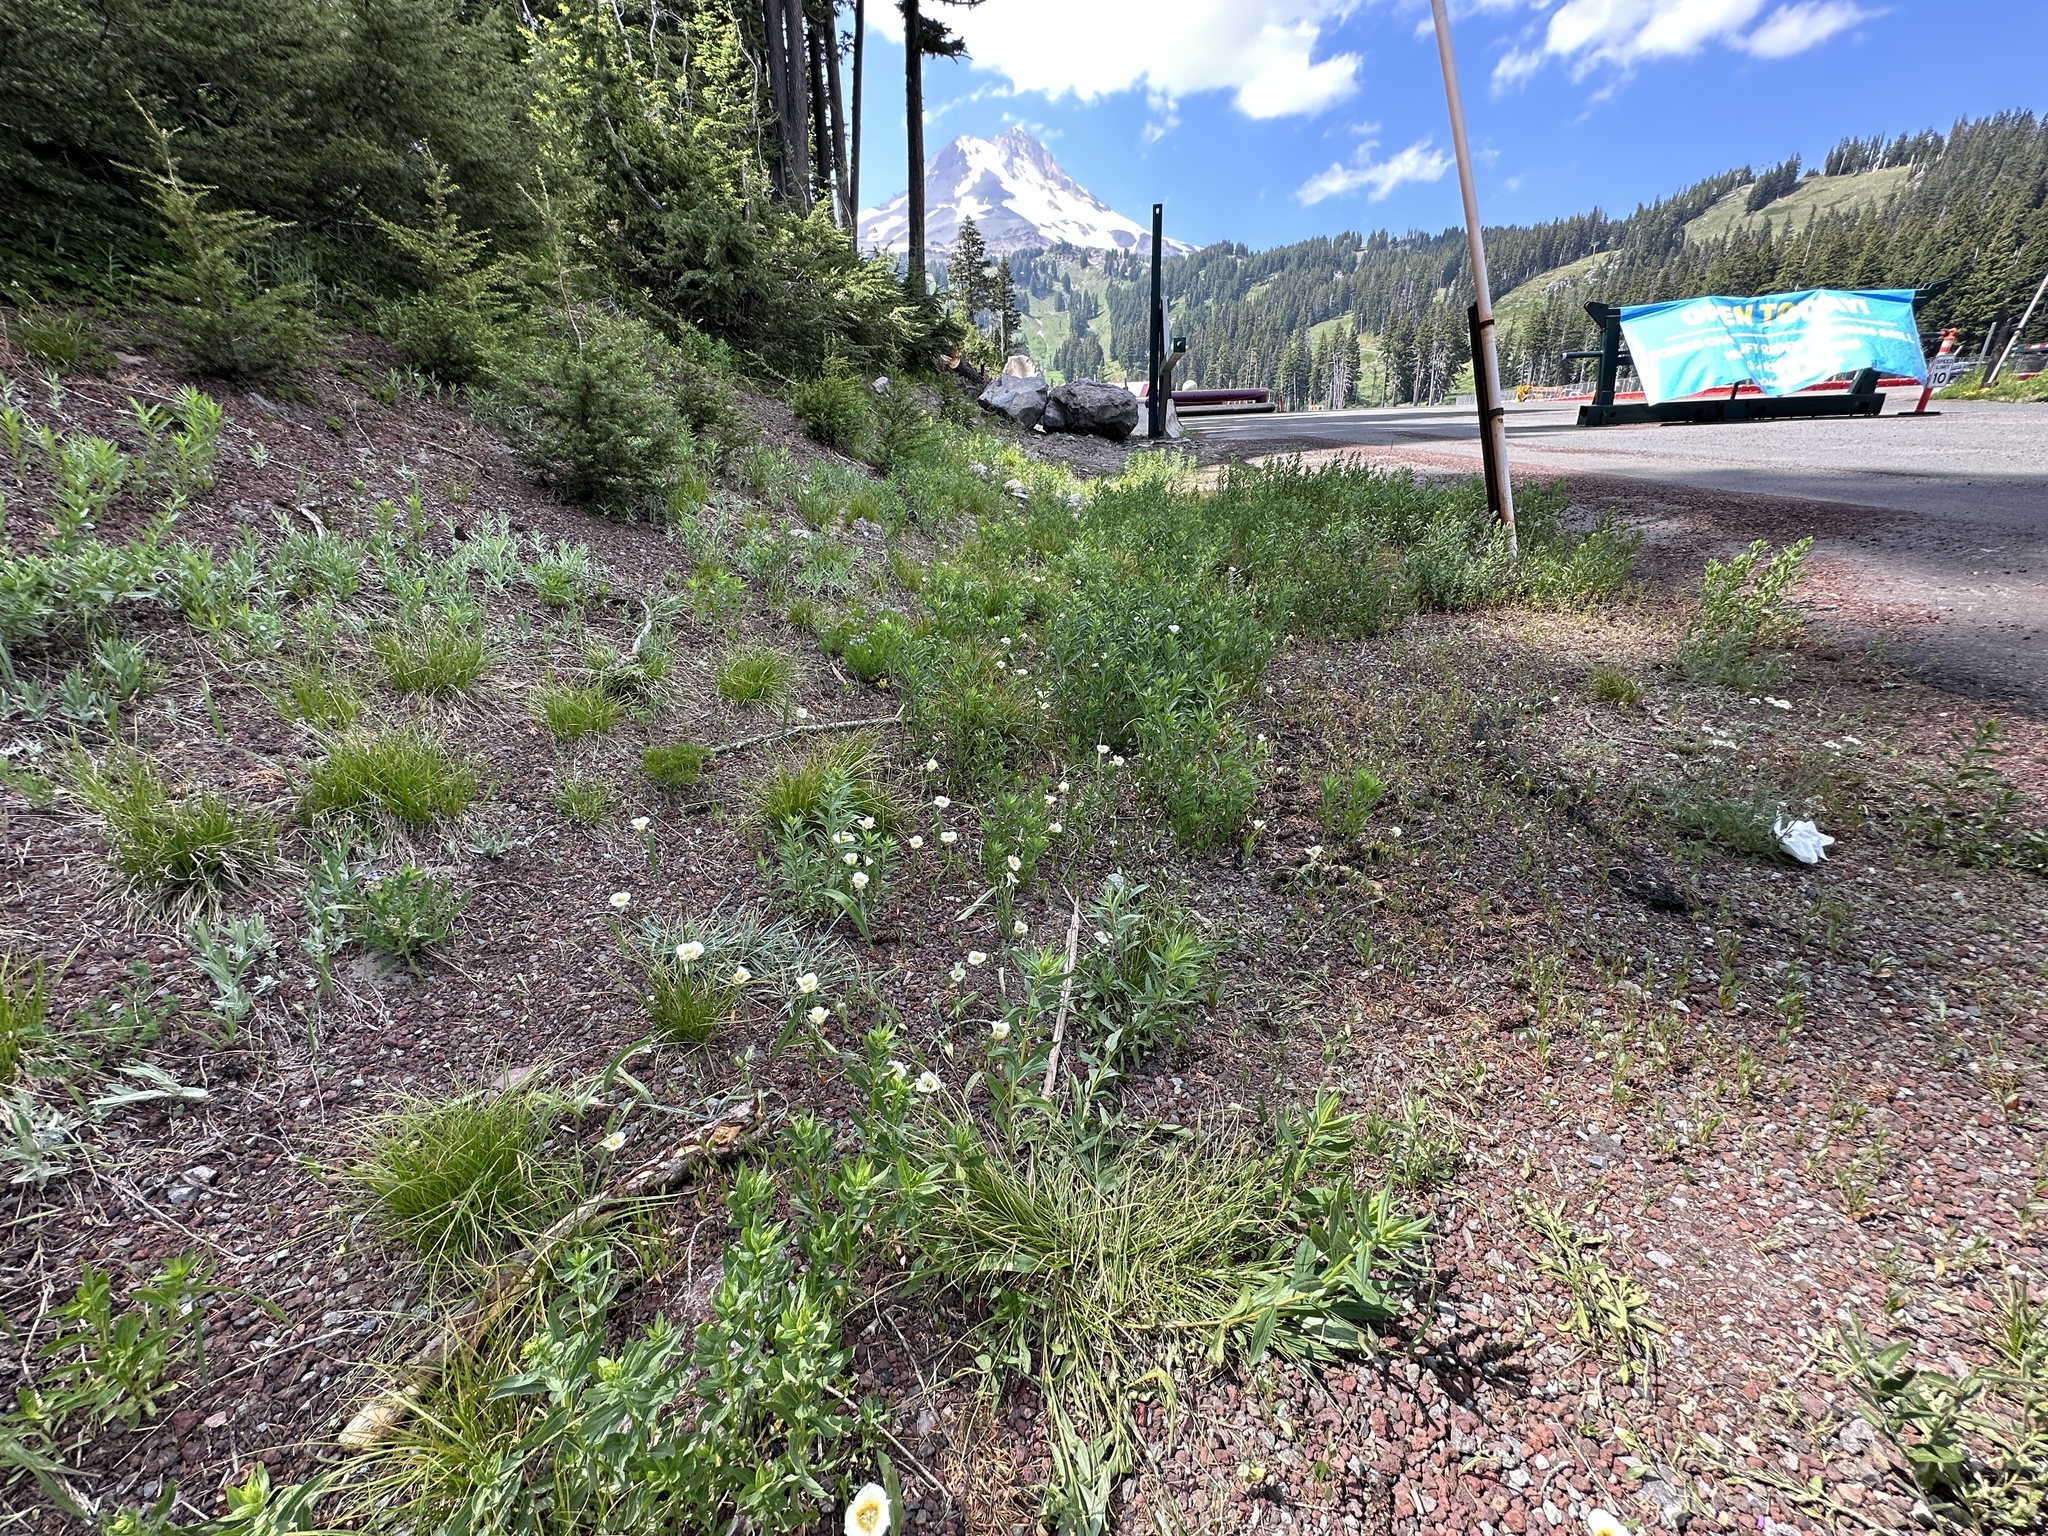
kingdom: Plantae
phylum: Tracheophyta
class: Liliopsida
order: Liliales
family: Liliaceae
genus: Calochortus
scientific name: Calochortus subalpinus
